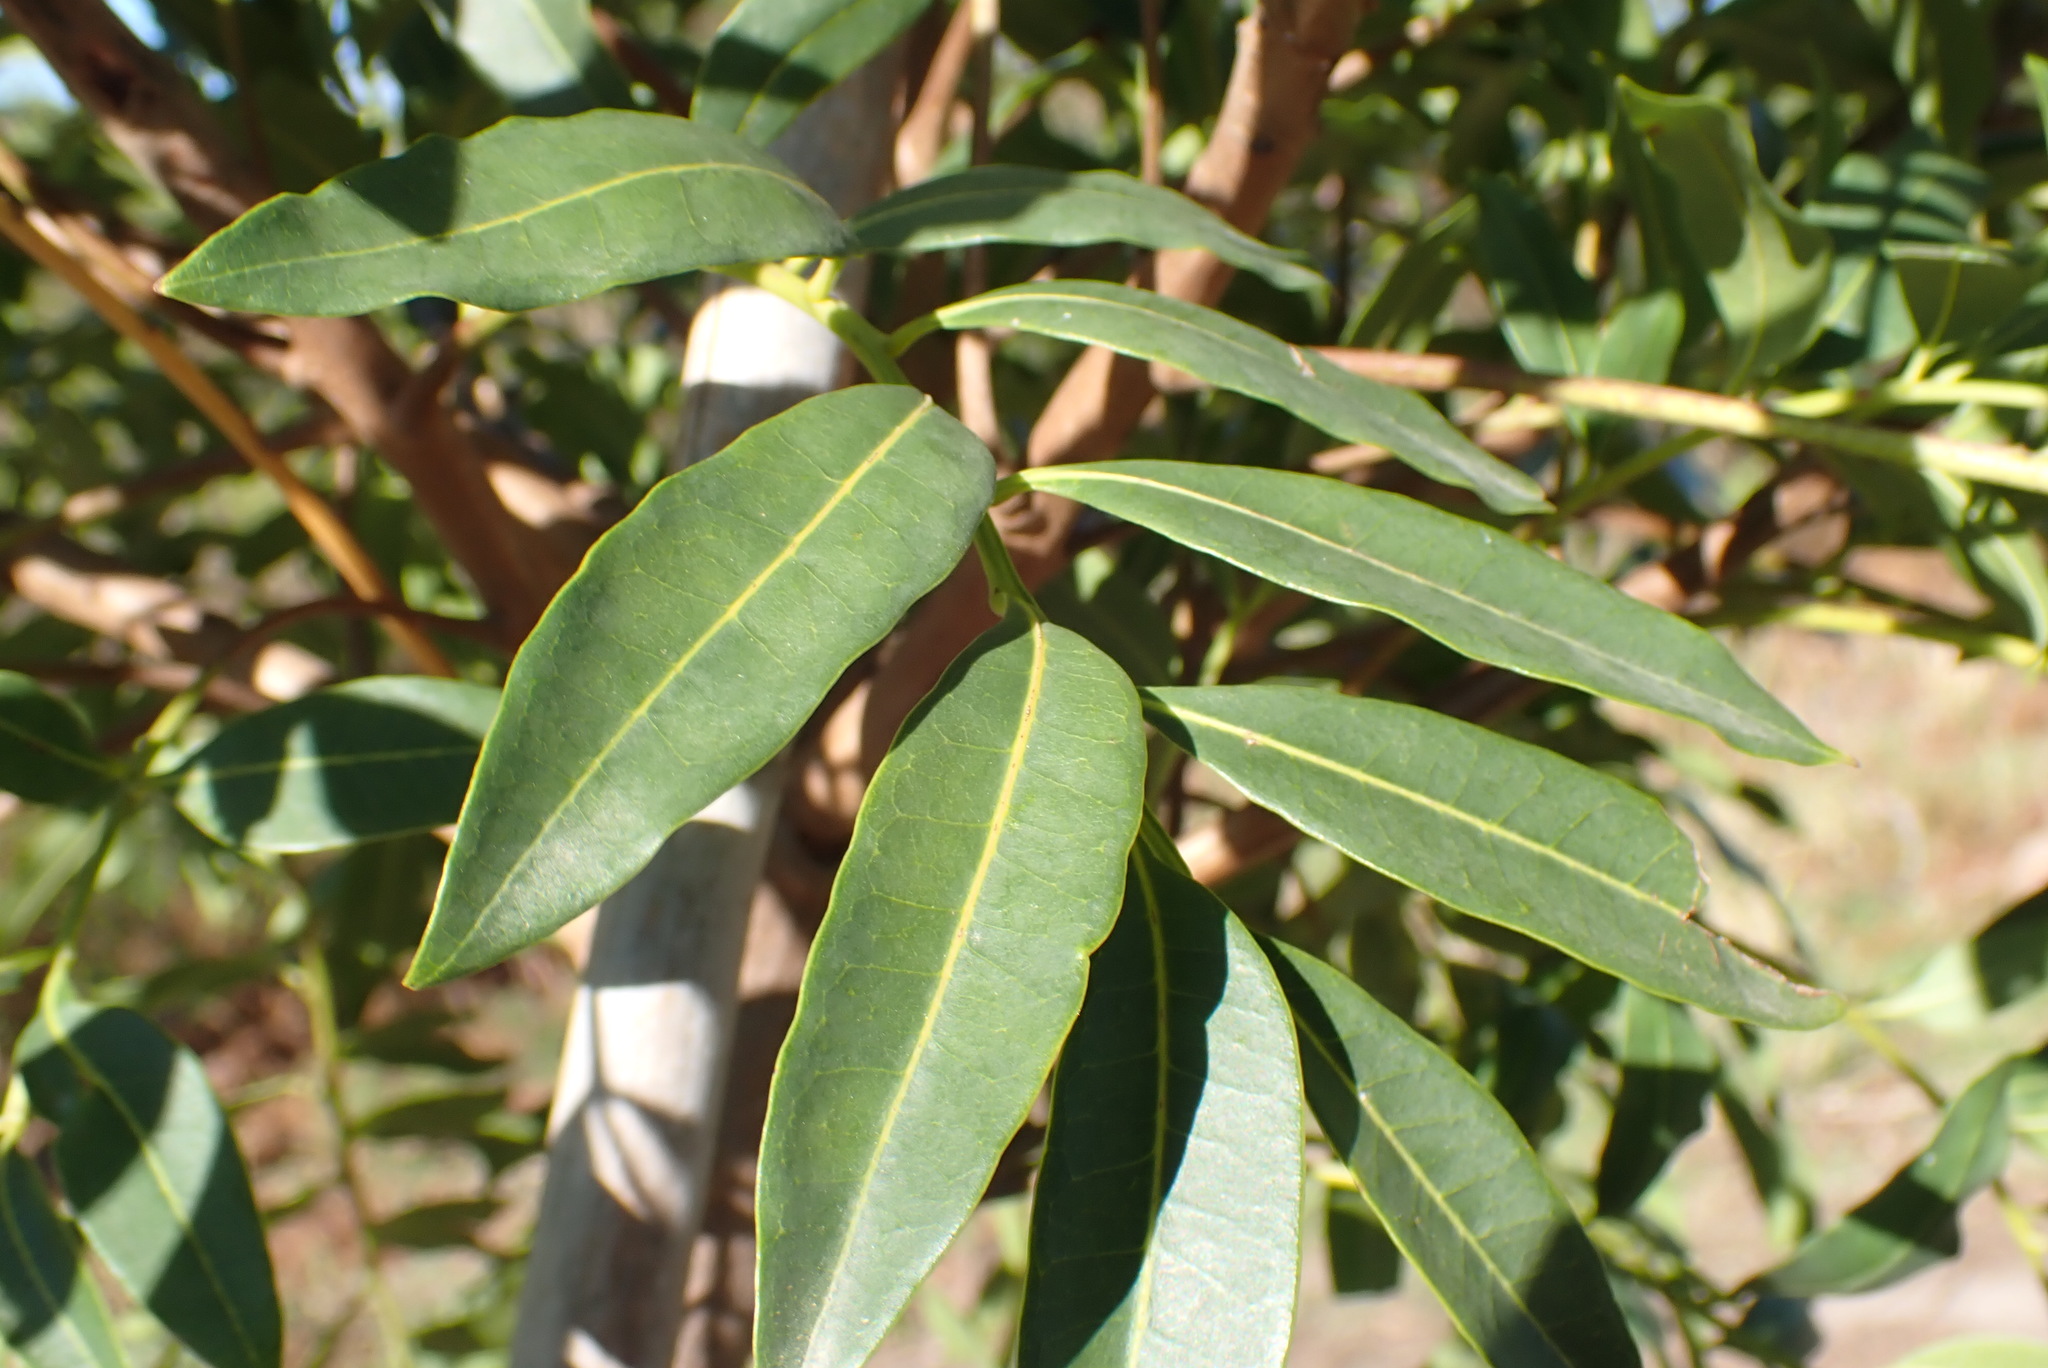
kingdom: Plantae
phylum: Tracheophyta
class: Magnoliopsida
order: Sapindales
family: Meliaceae
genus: Ekebergia
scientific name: Ekebergia capensis
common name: Cape-ash
